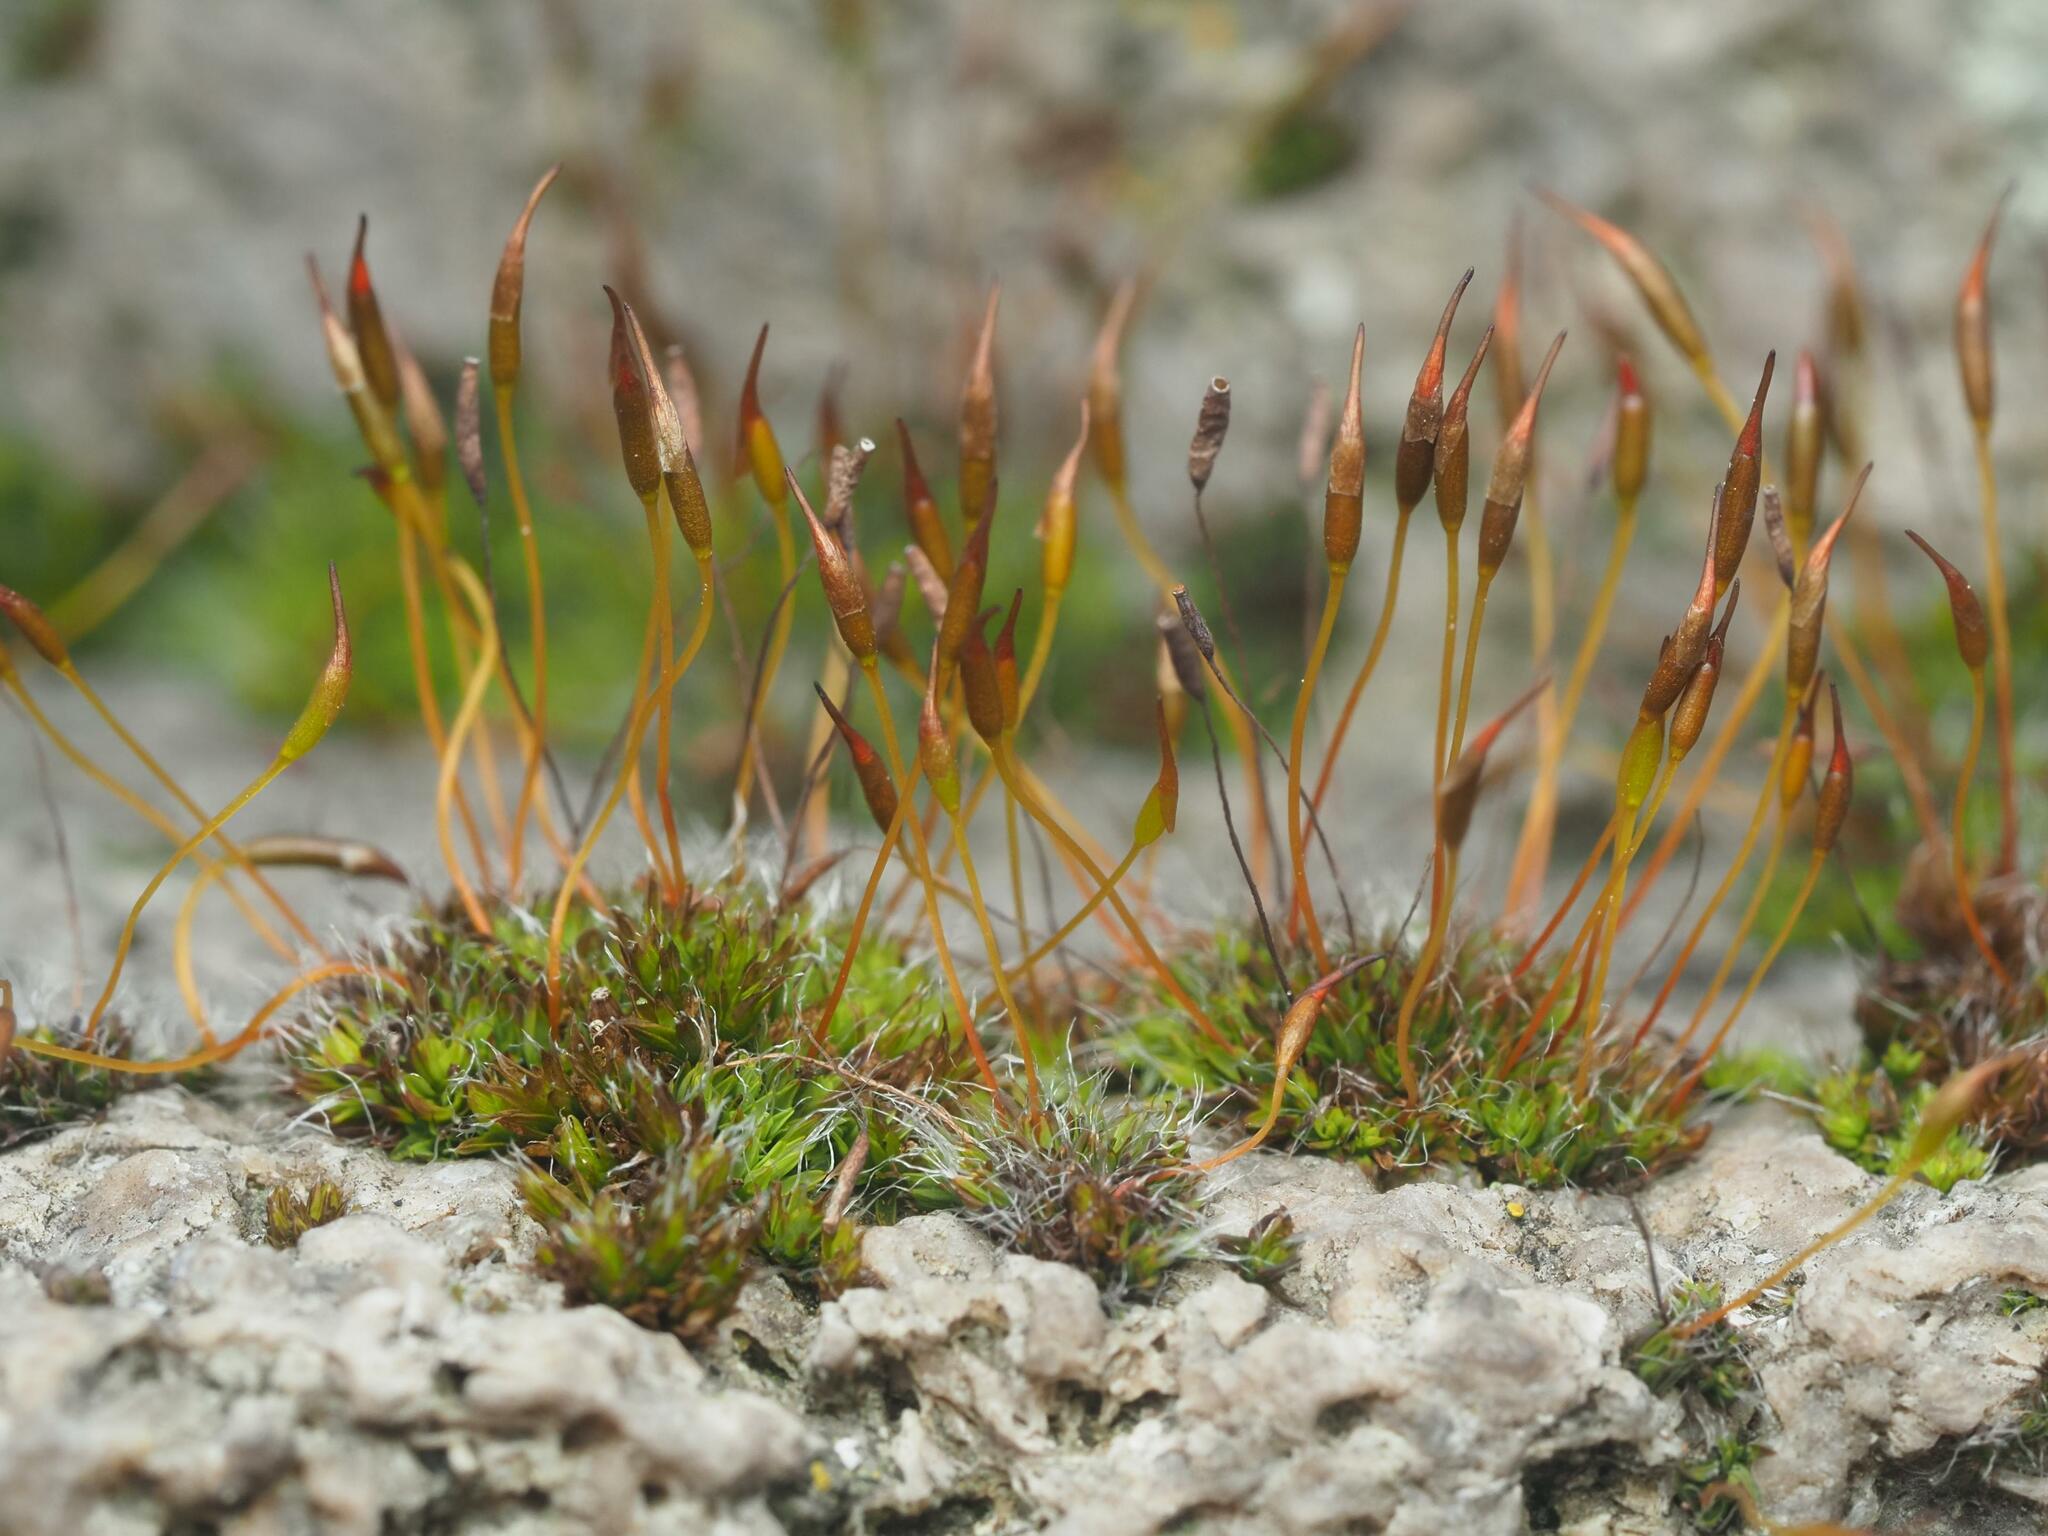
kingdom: Plantae
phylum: Bryophyta
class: Bryopsida
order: Pottiales
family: Pottiaceae
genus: Tortula
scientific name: Tortula muralis
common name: Wall screw-moss
